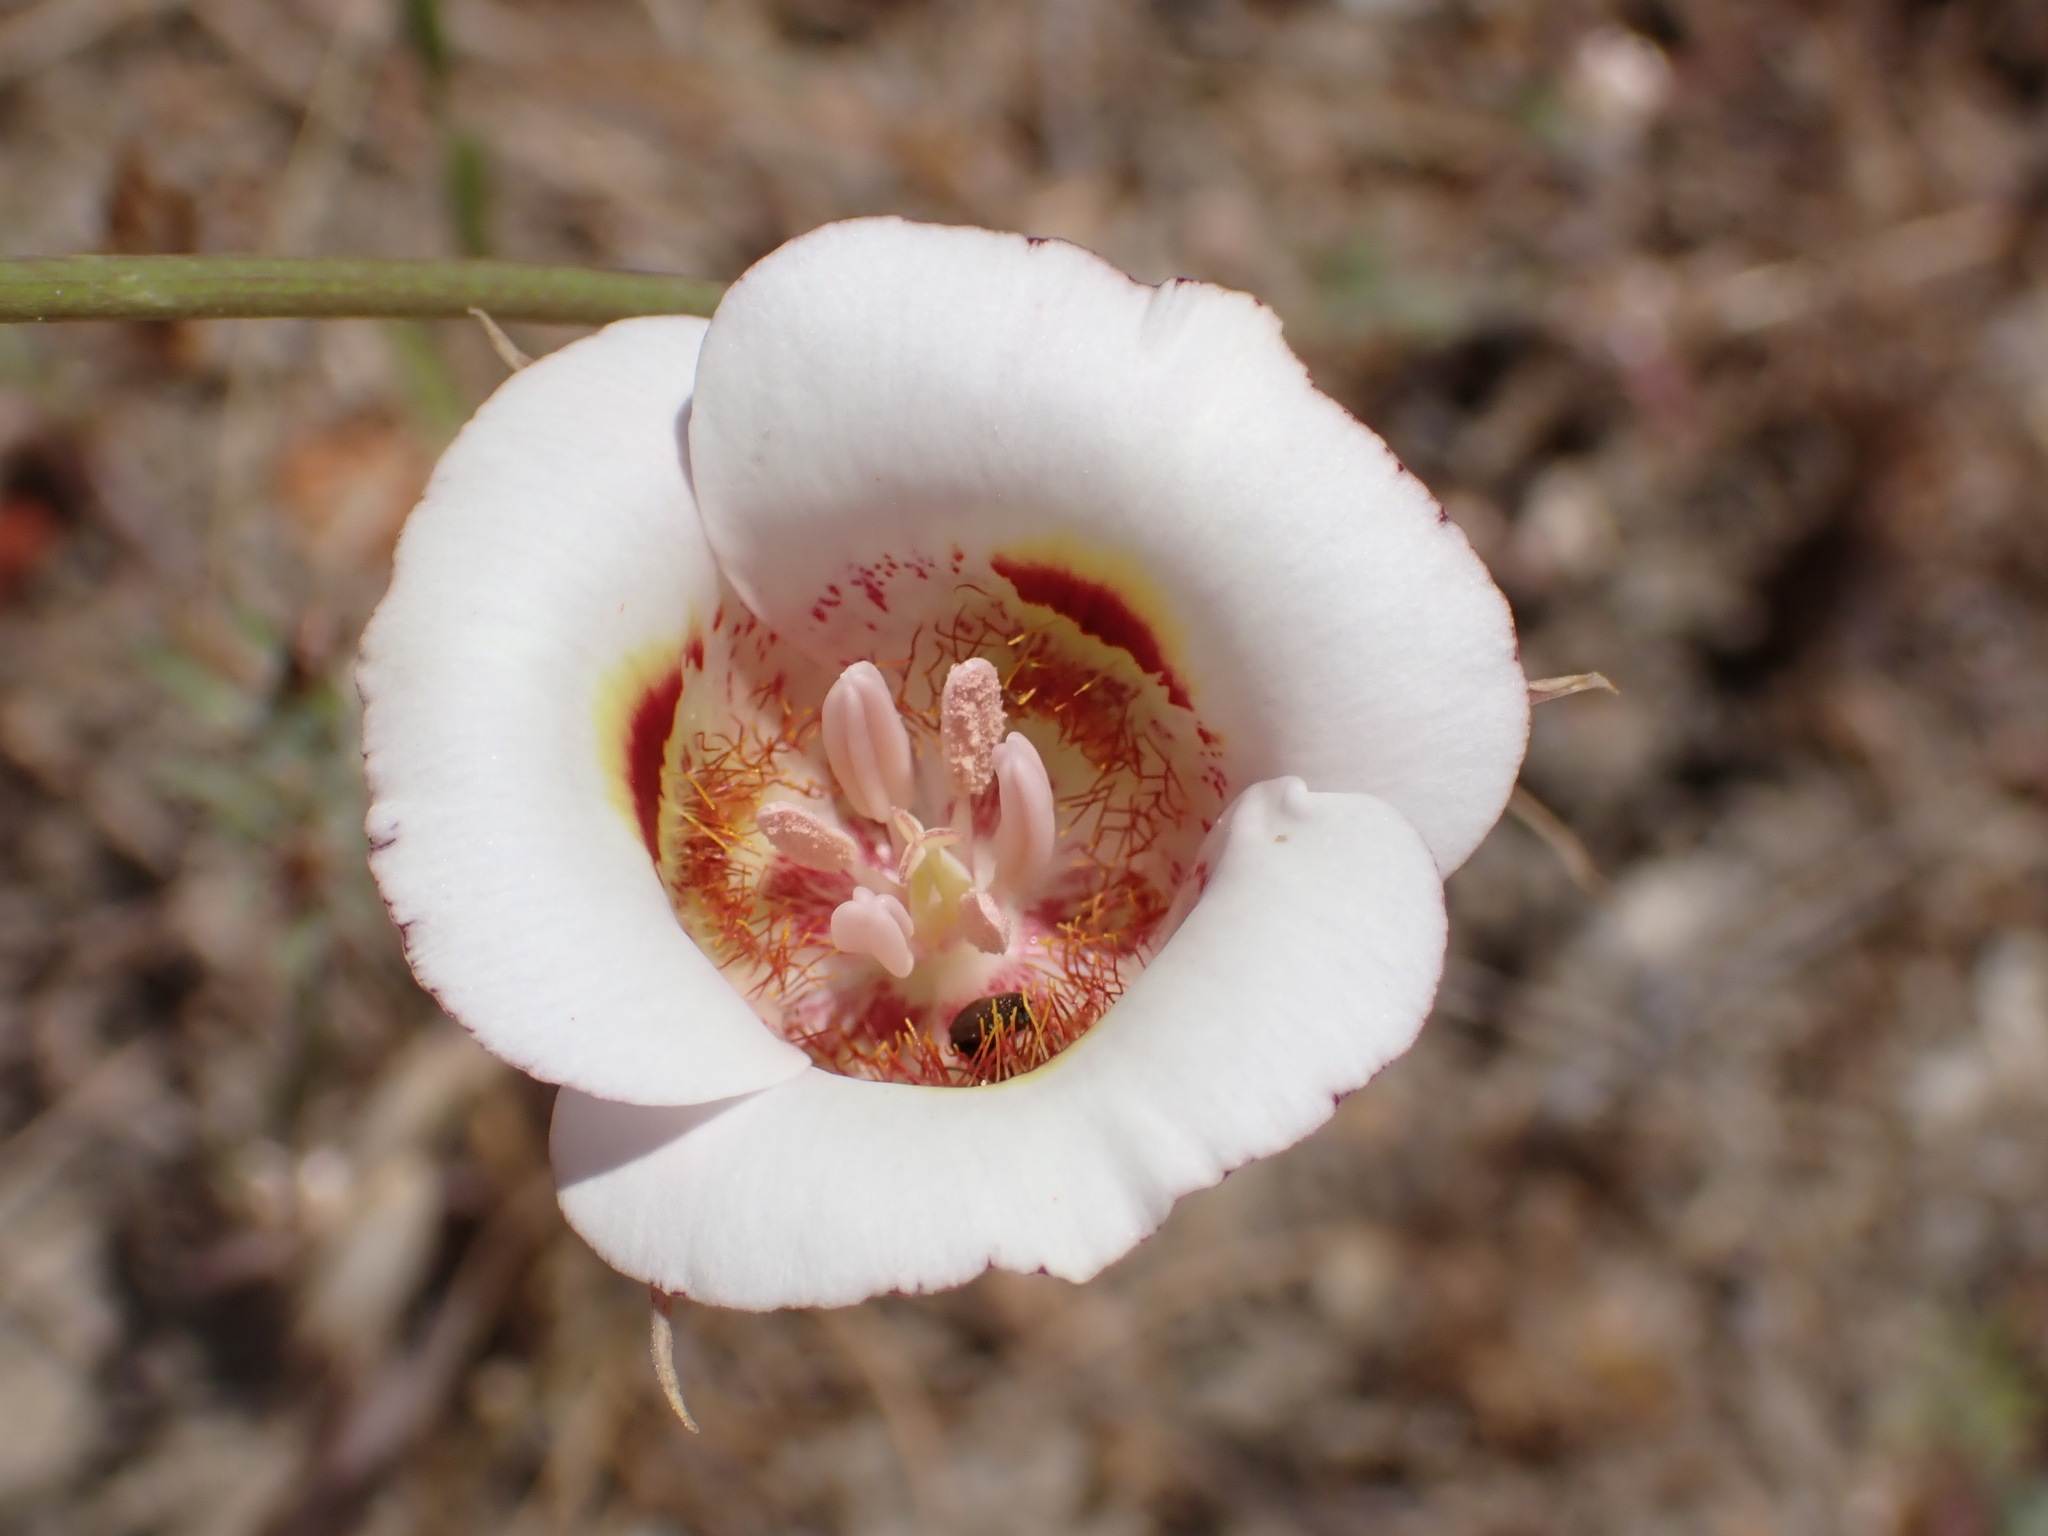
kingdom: Plantae
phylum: Tracheophyta
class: Liliopsida
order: Liliales
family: Liliaceae
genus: Calochortus
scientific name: Calochortus argillosus
